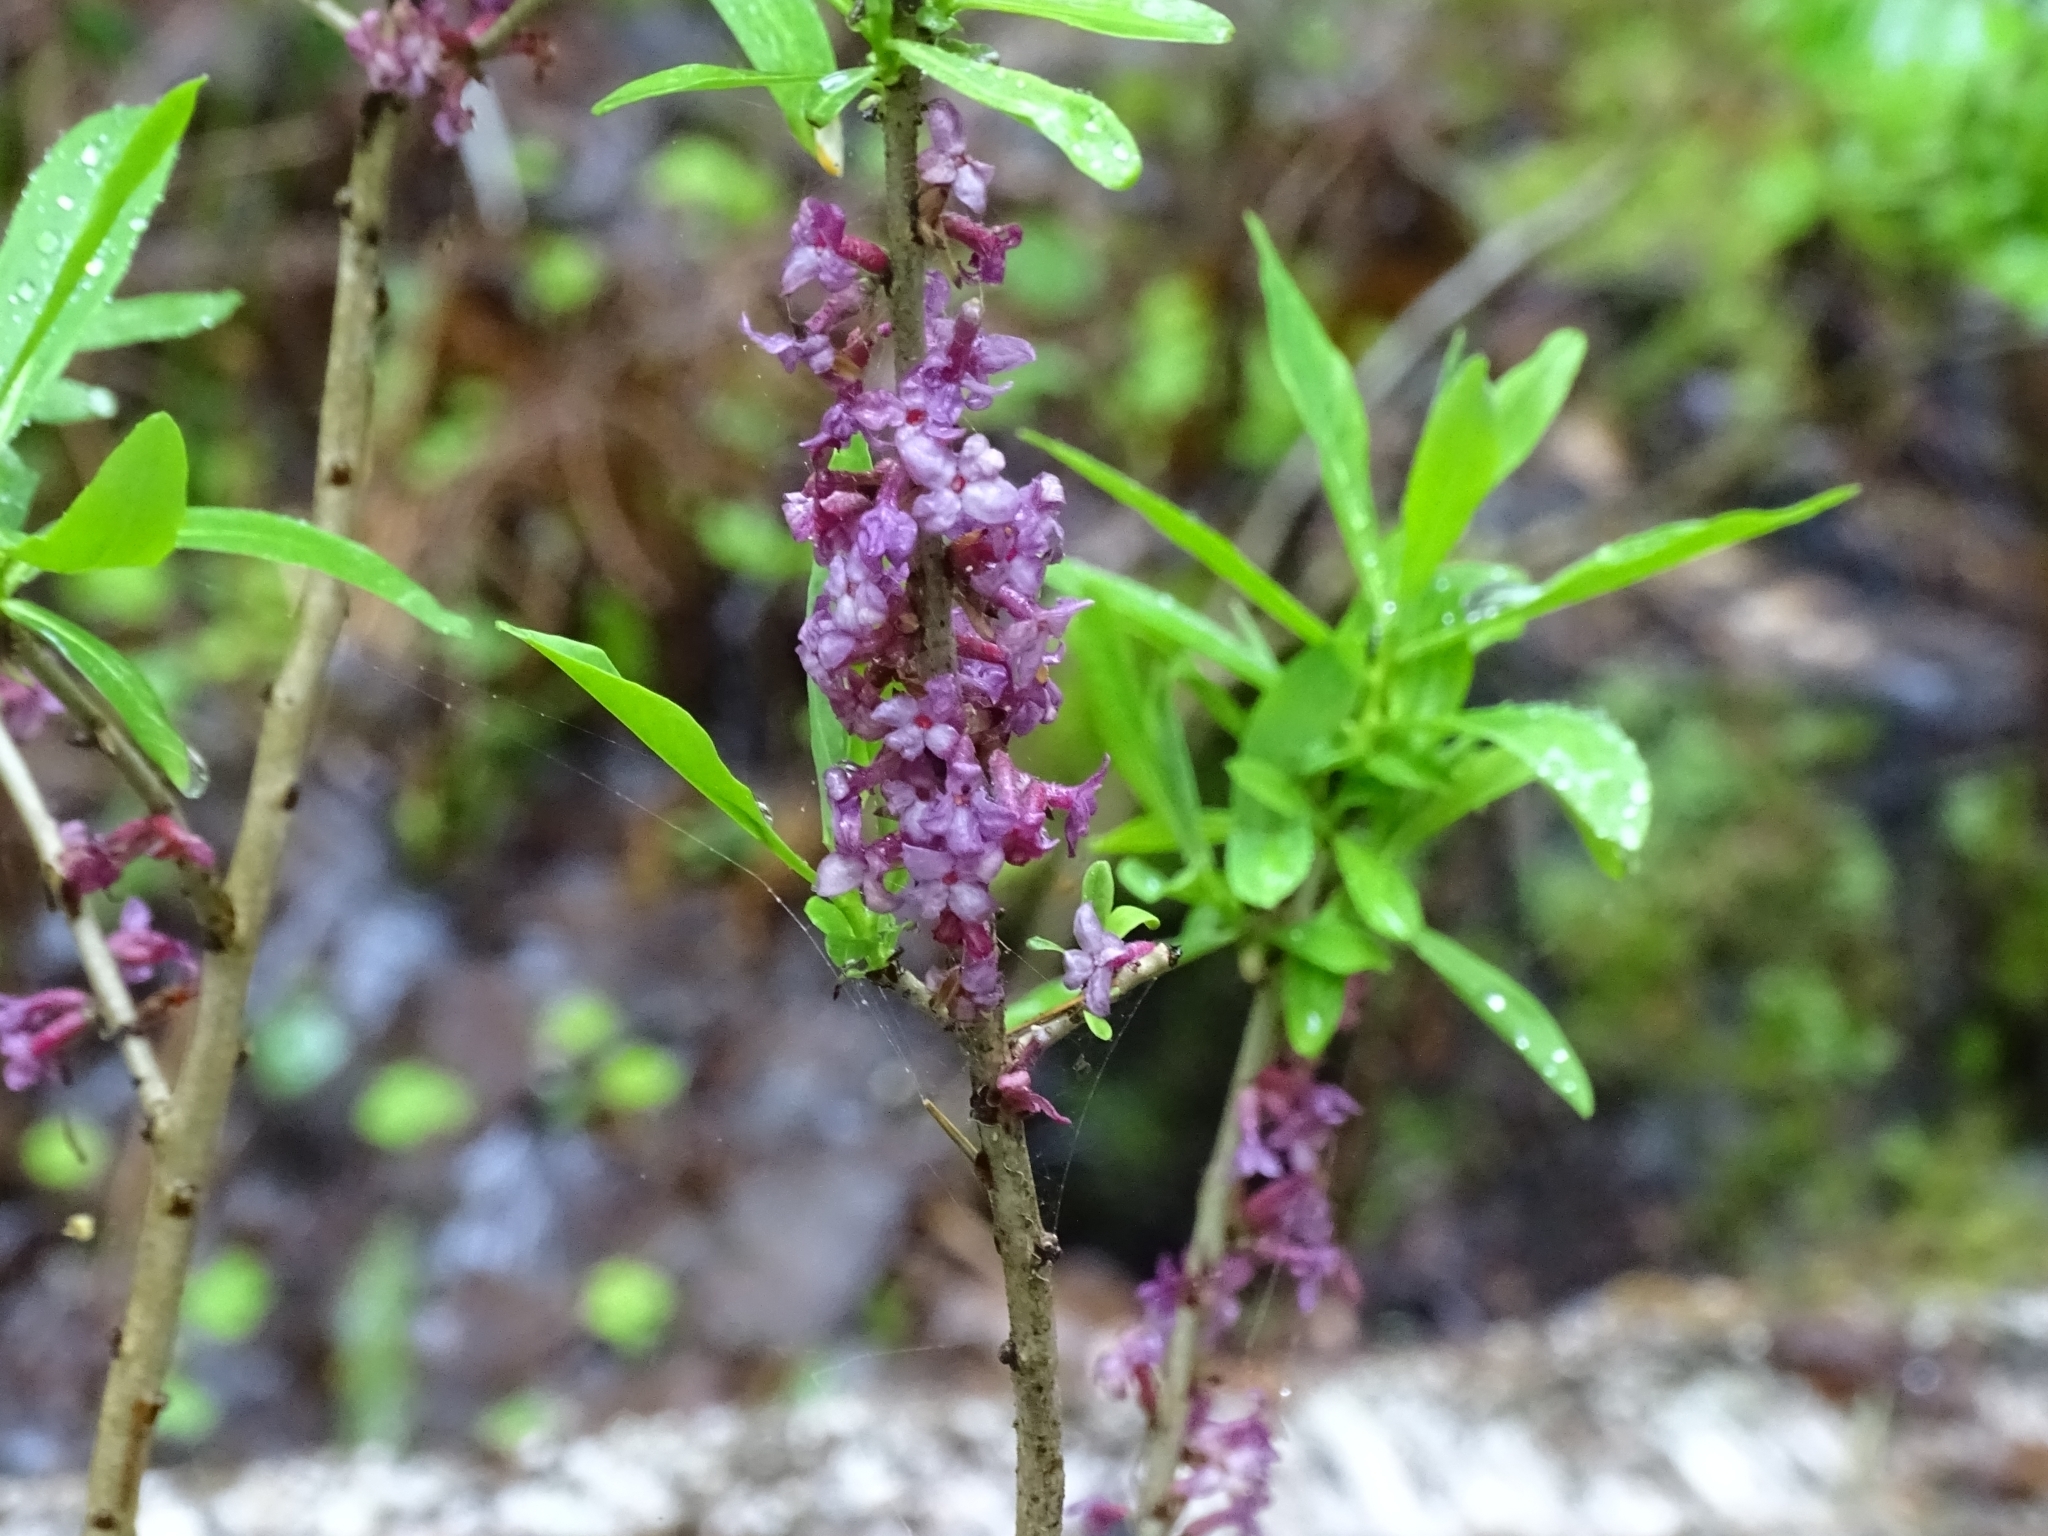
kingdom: Plantae
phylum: Tracheophyta
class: Magnoliopsida
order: Malvales
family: Thymelaeaceae
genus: Daphne
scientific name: Daphne mezereum
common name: Mezereon
